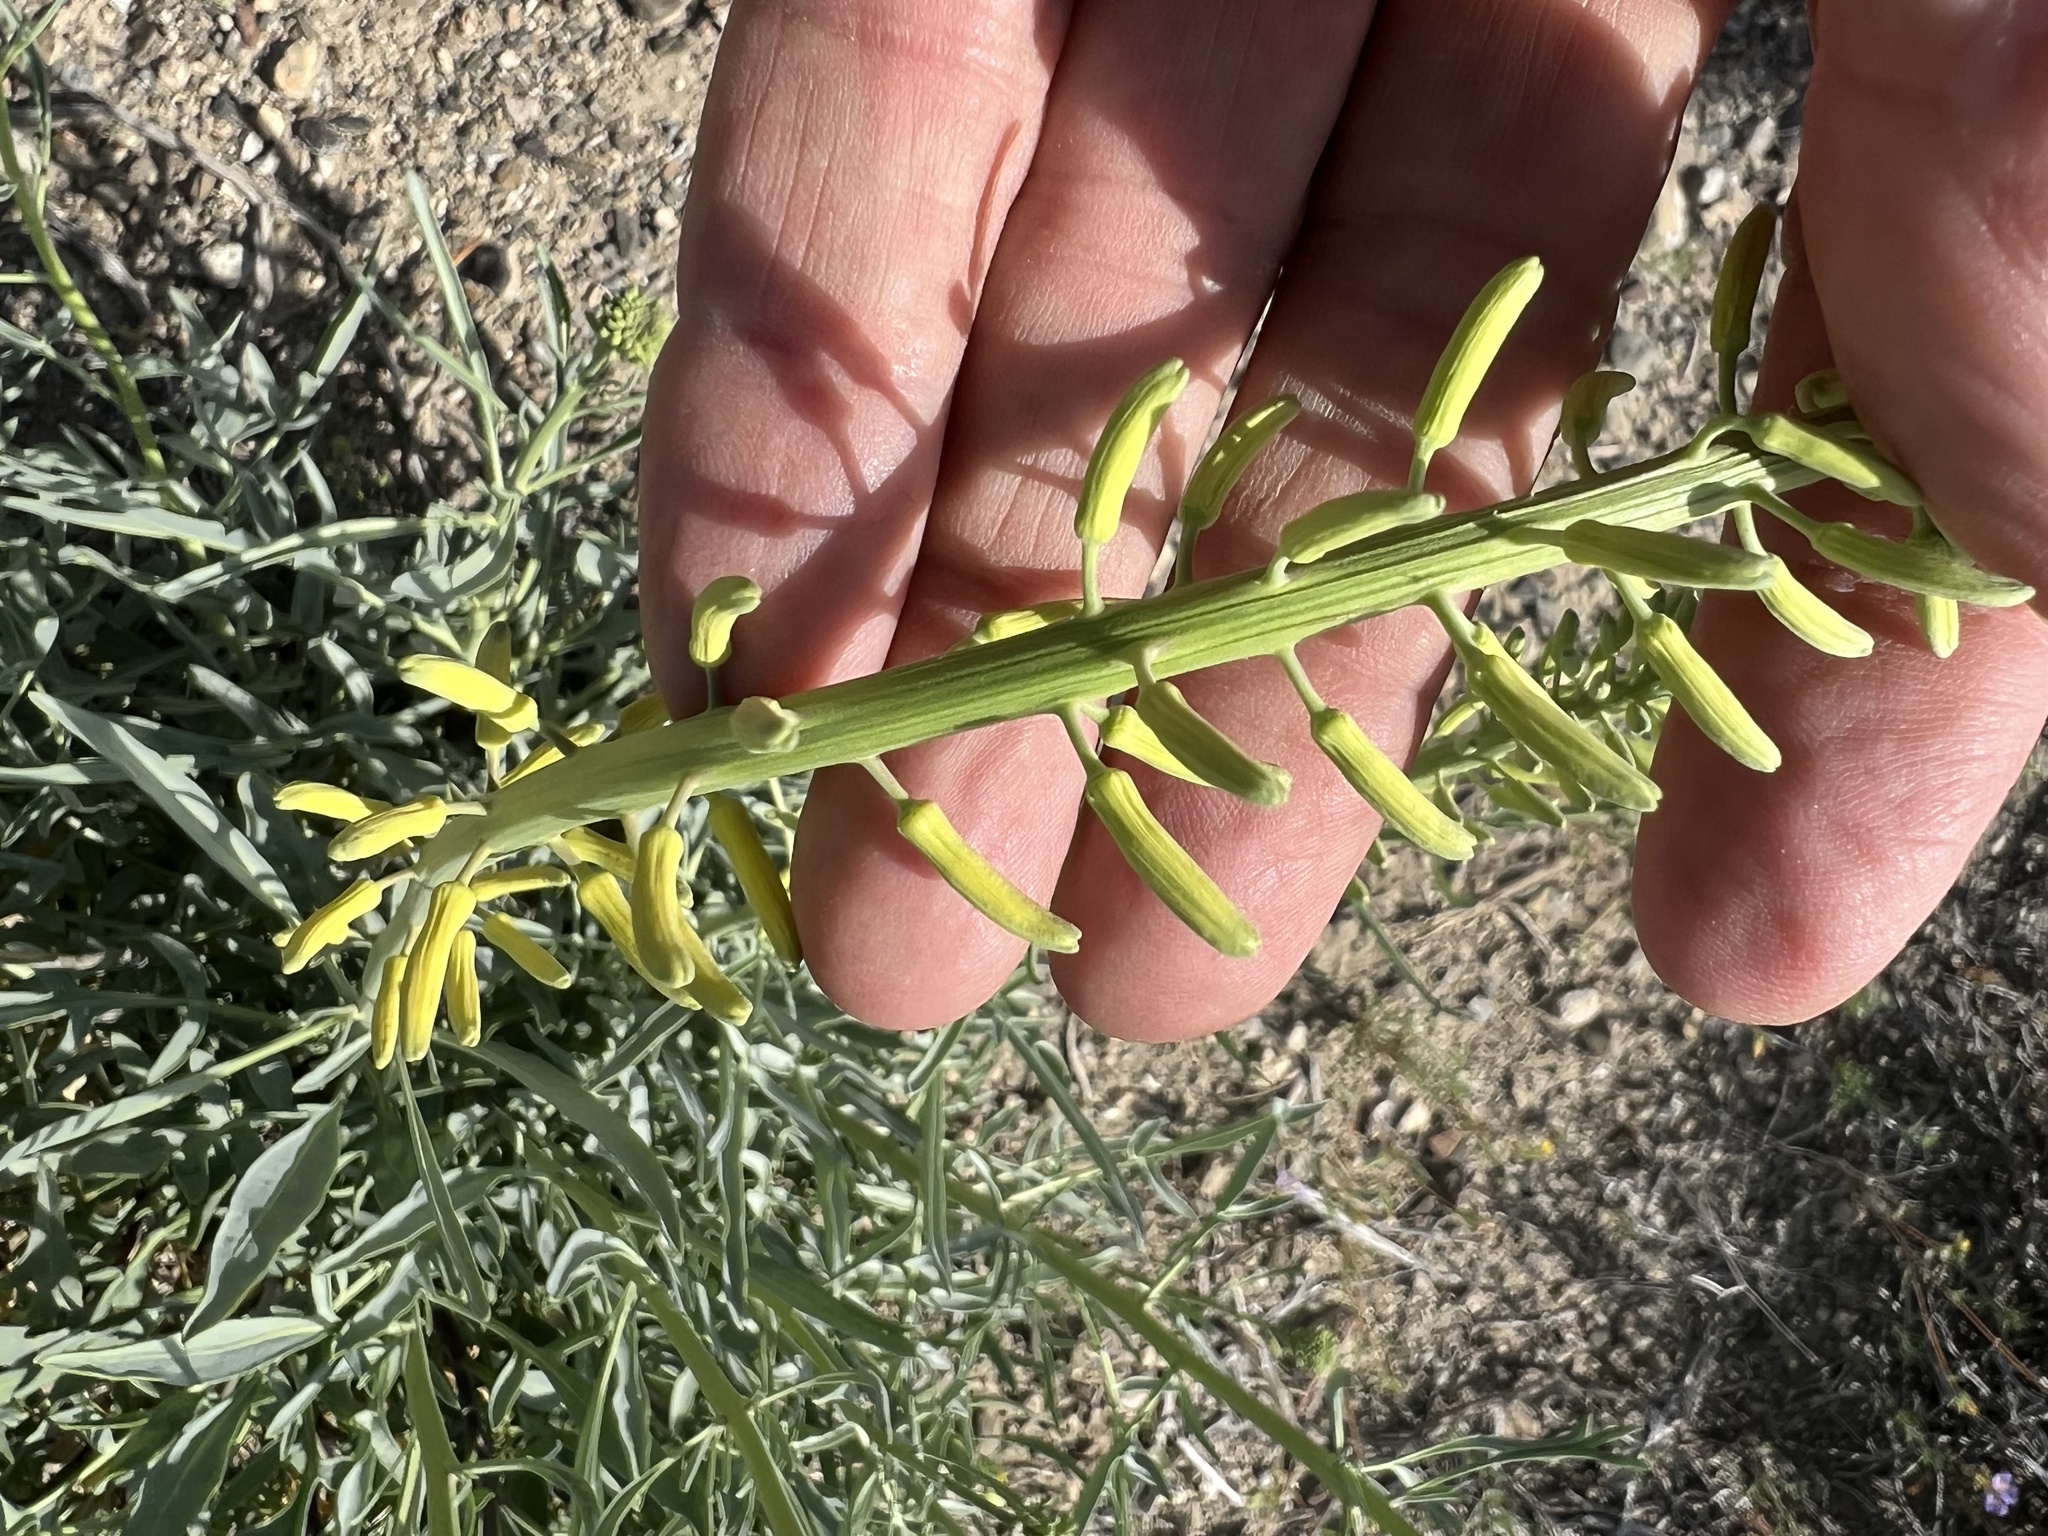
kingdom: Plantae
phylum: Tracheophyta
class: Magnoliopsida
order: Brassicales
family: Brassicaceae
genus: Stanleya
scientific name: Stanleya pinnata
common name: Prince's-plume
